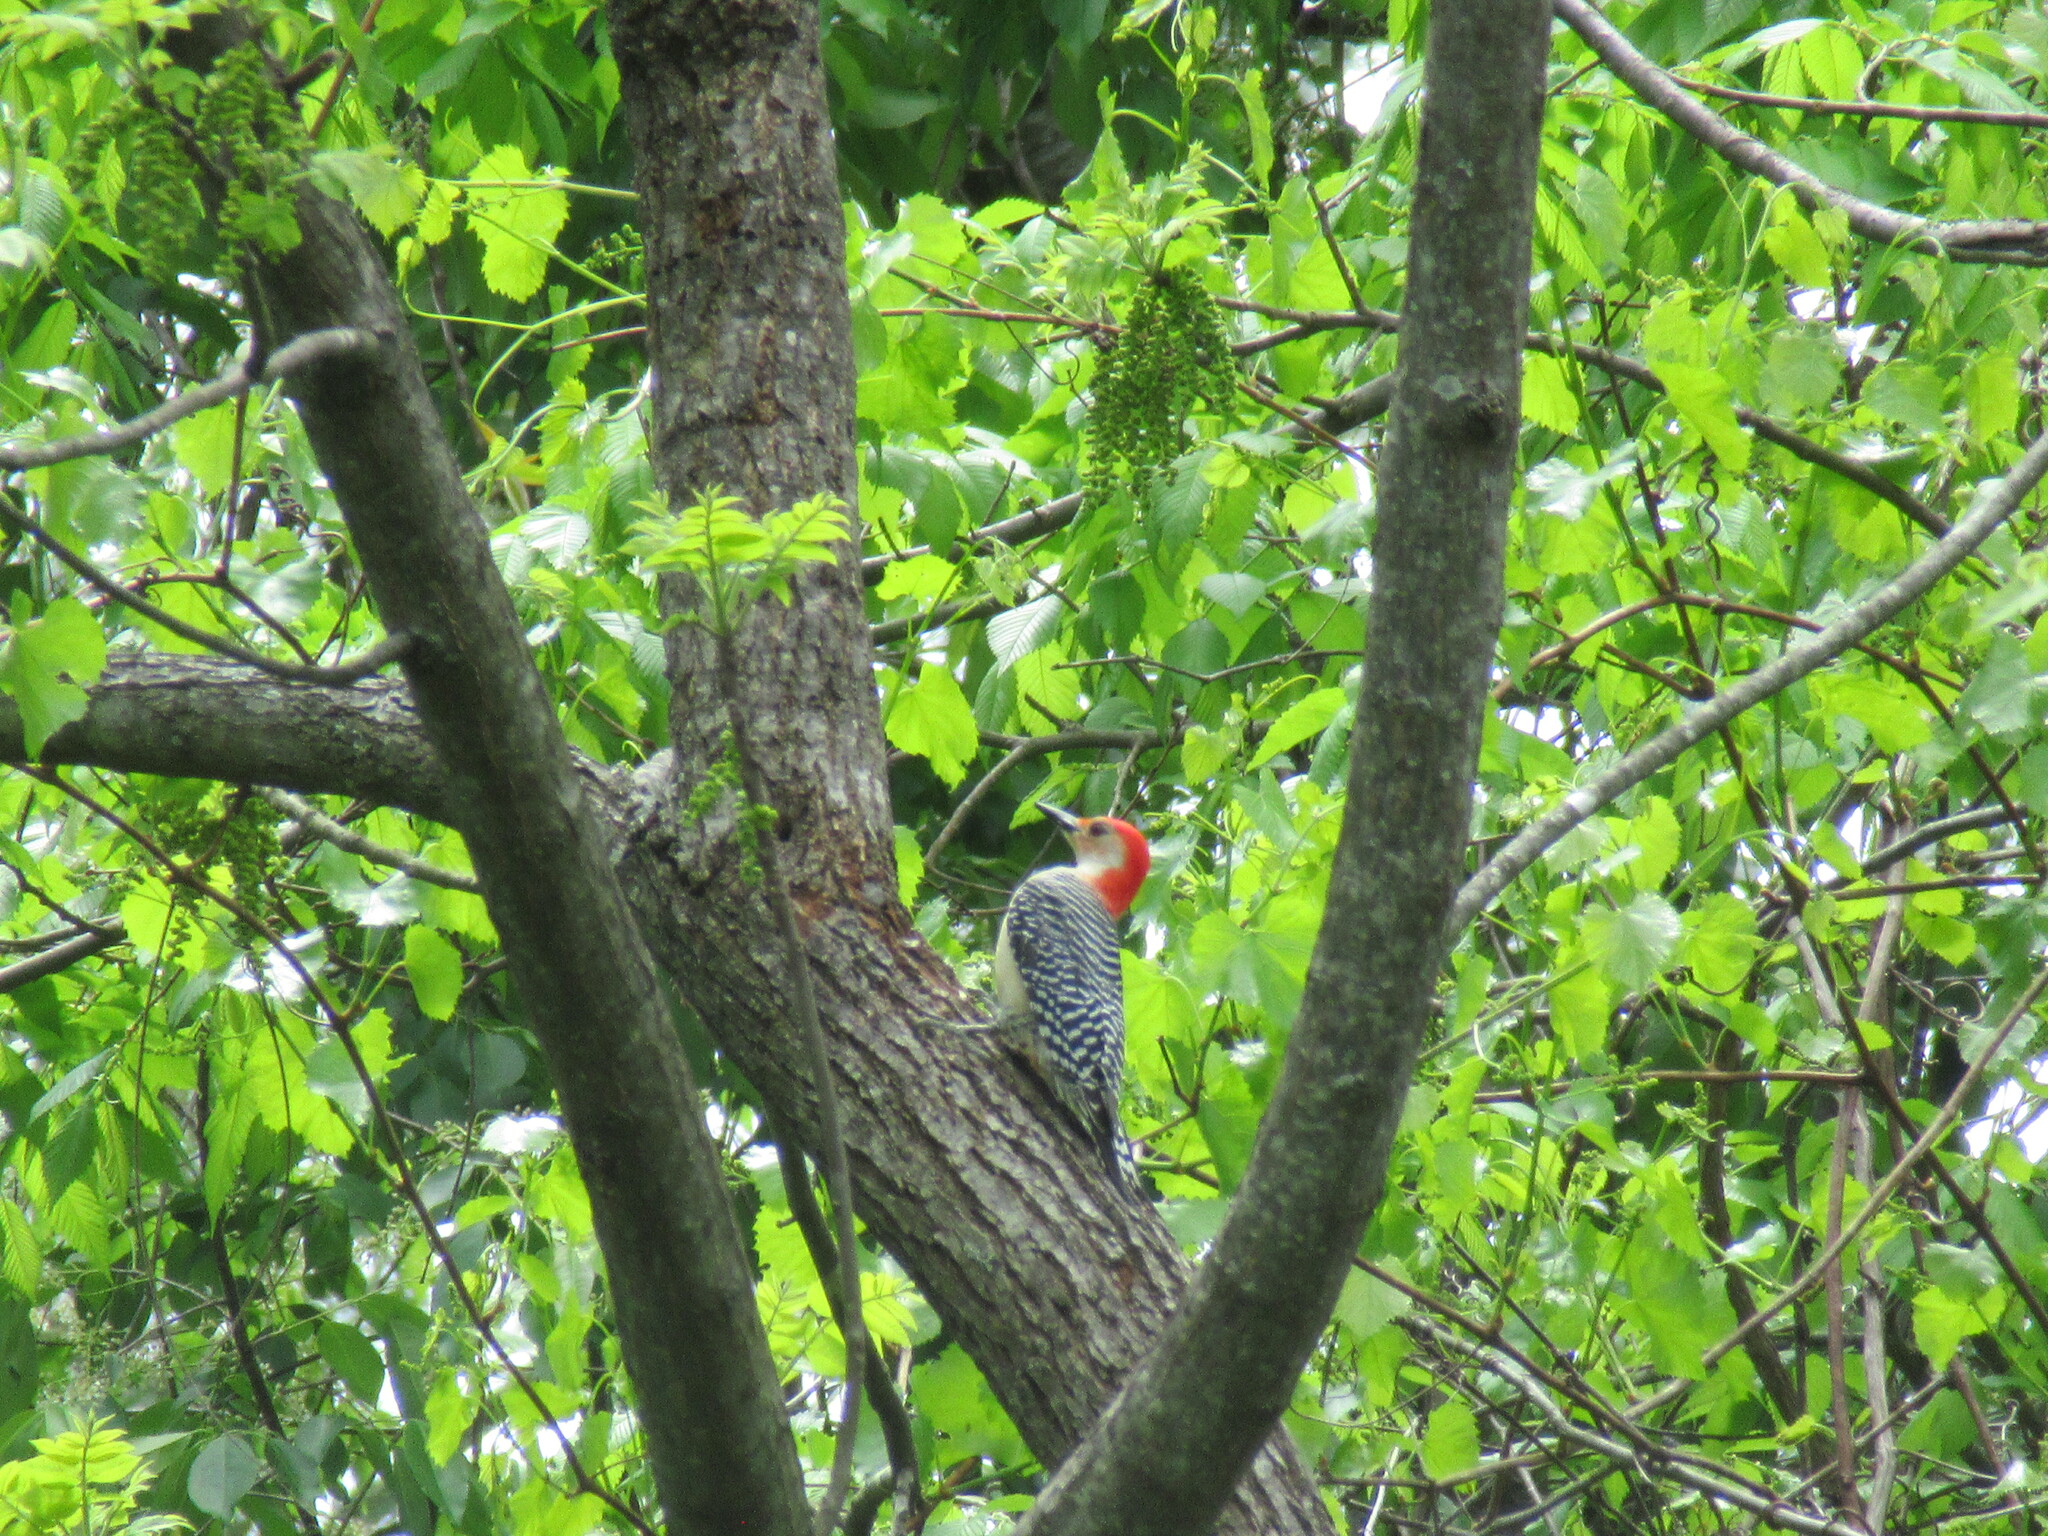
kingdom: Animalia
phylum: Chordata
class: Aves
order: Piciformes
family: Picidae
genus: Melanerpes
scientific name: Melanerpes carolinus
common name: Red-bellied woodpecker
